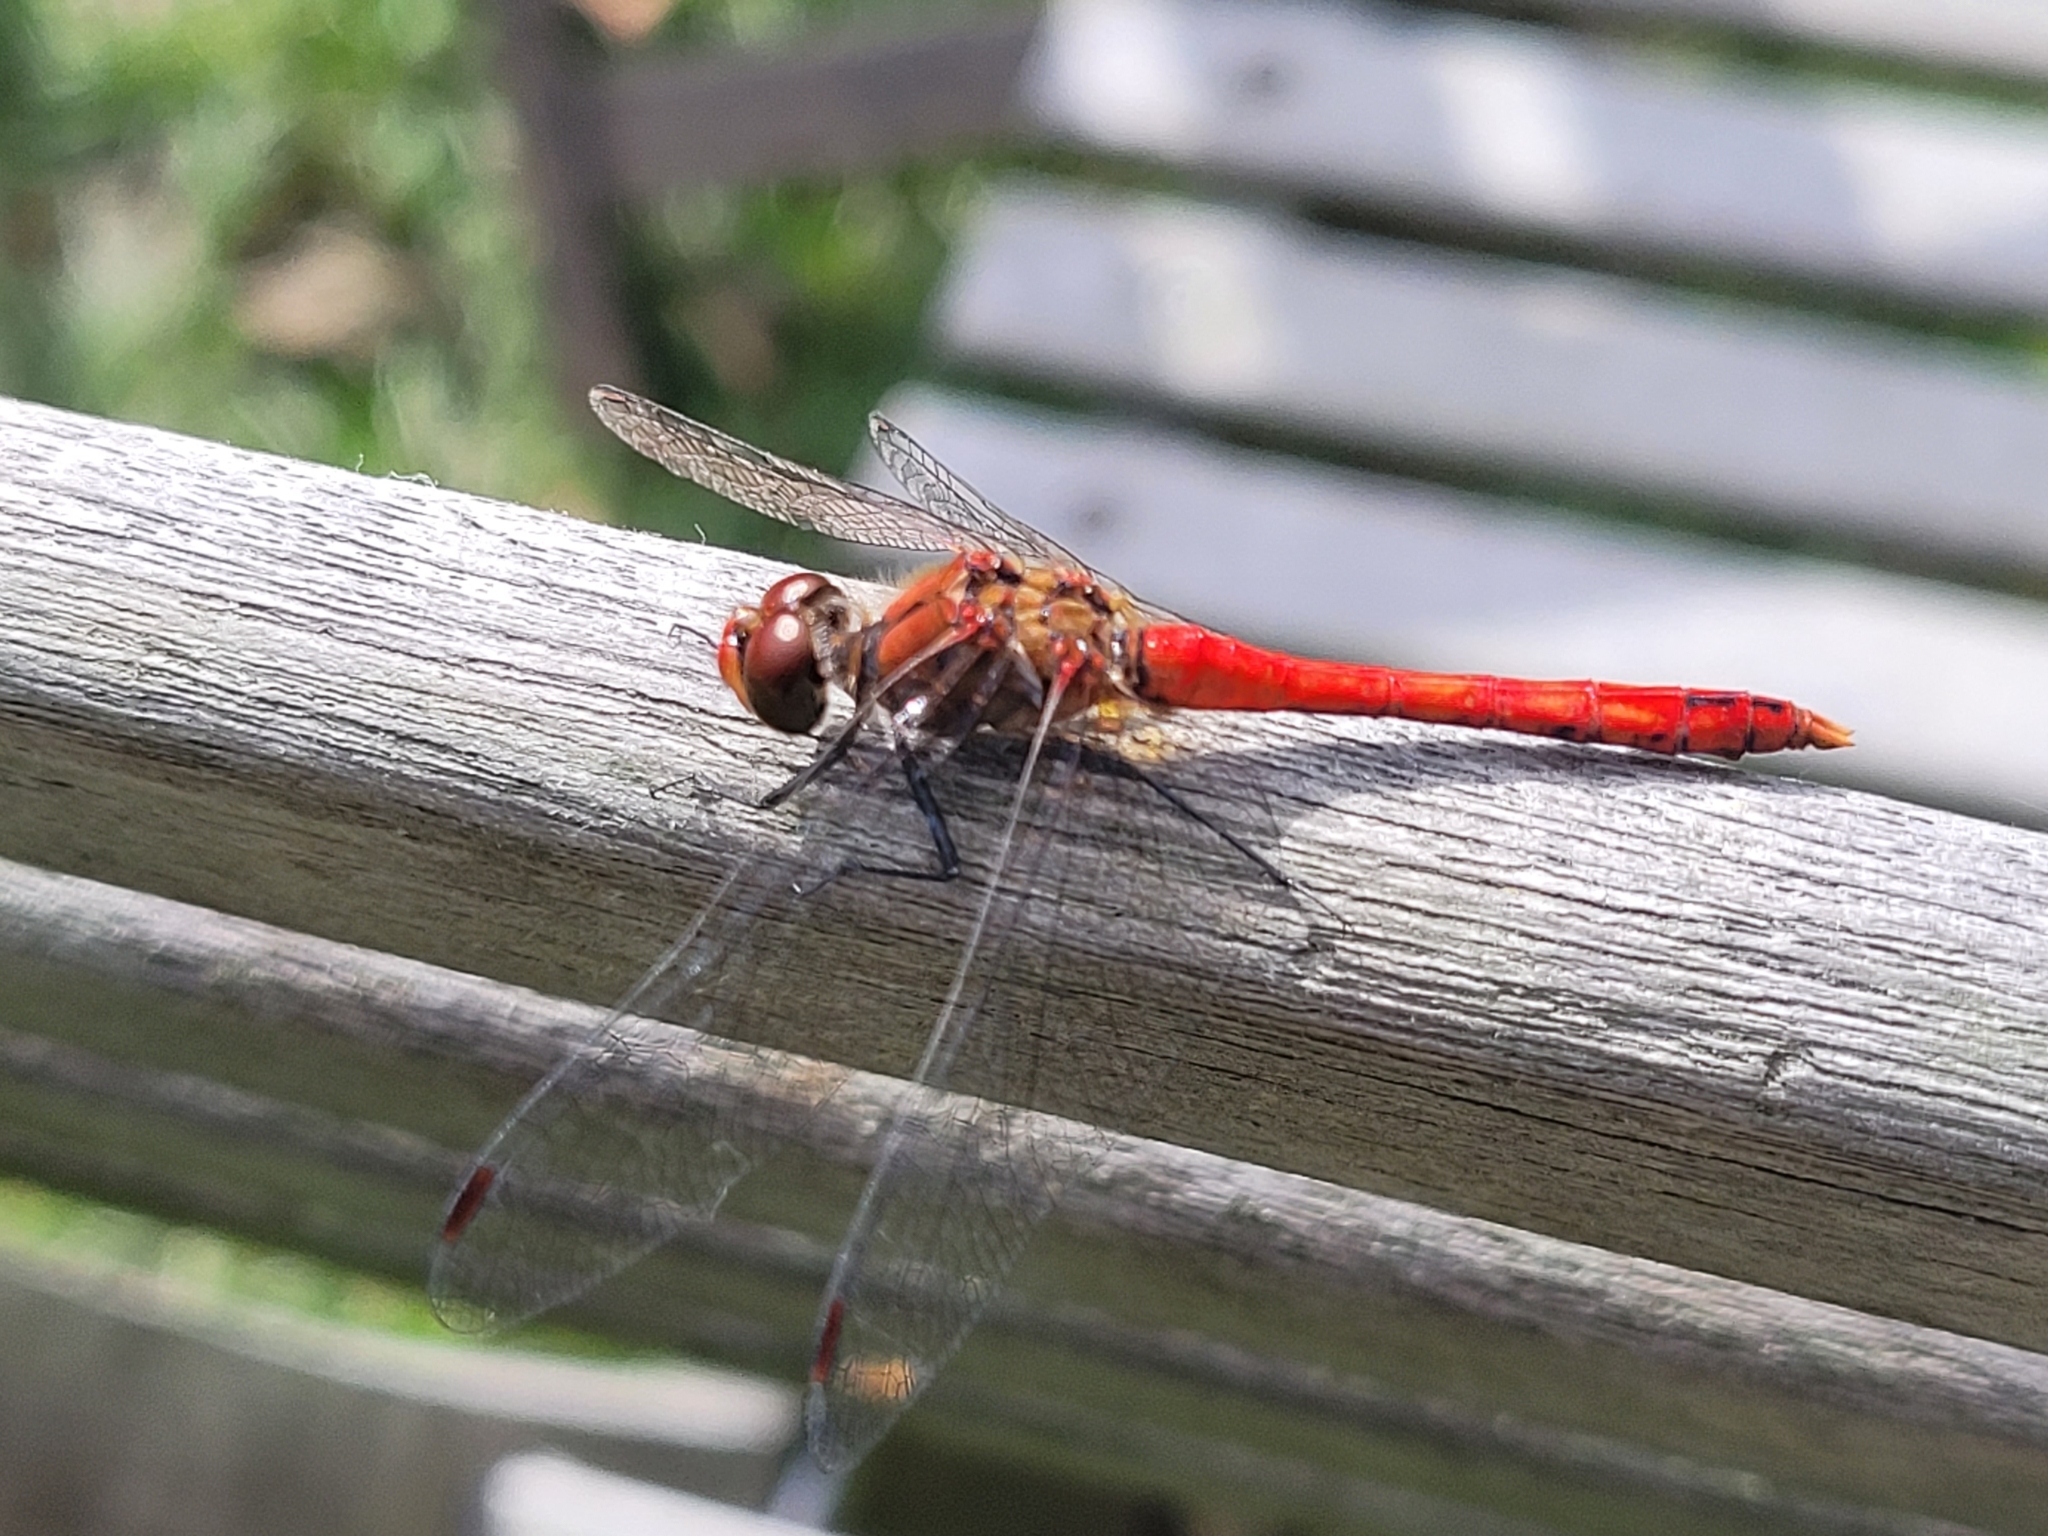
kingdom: Animalia
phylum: Arthropoda
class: Insecta
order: Odonata
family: Libellulidae
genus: Sympetrum
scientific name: Sympetrum sanguineum
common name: Ruddy darter
